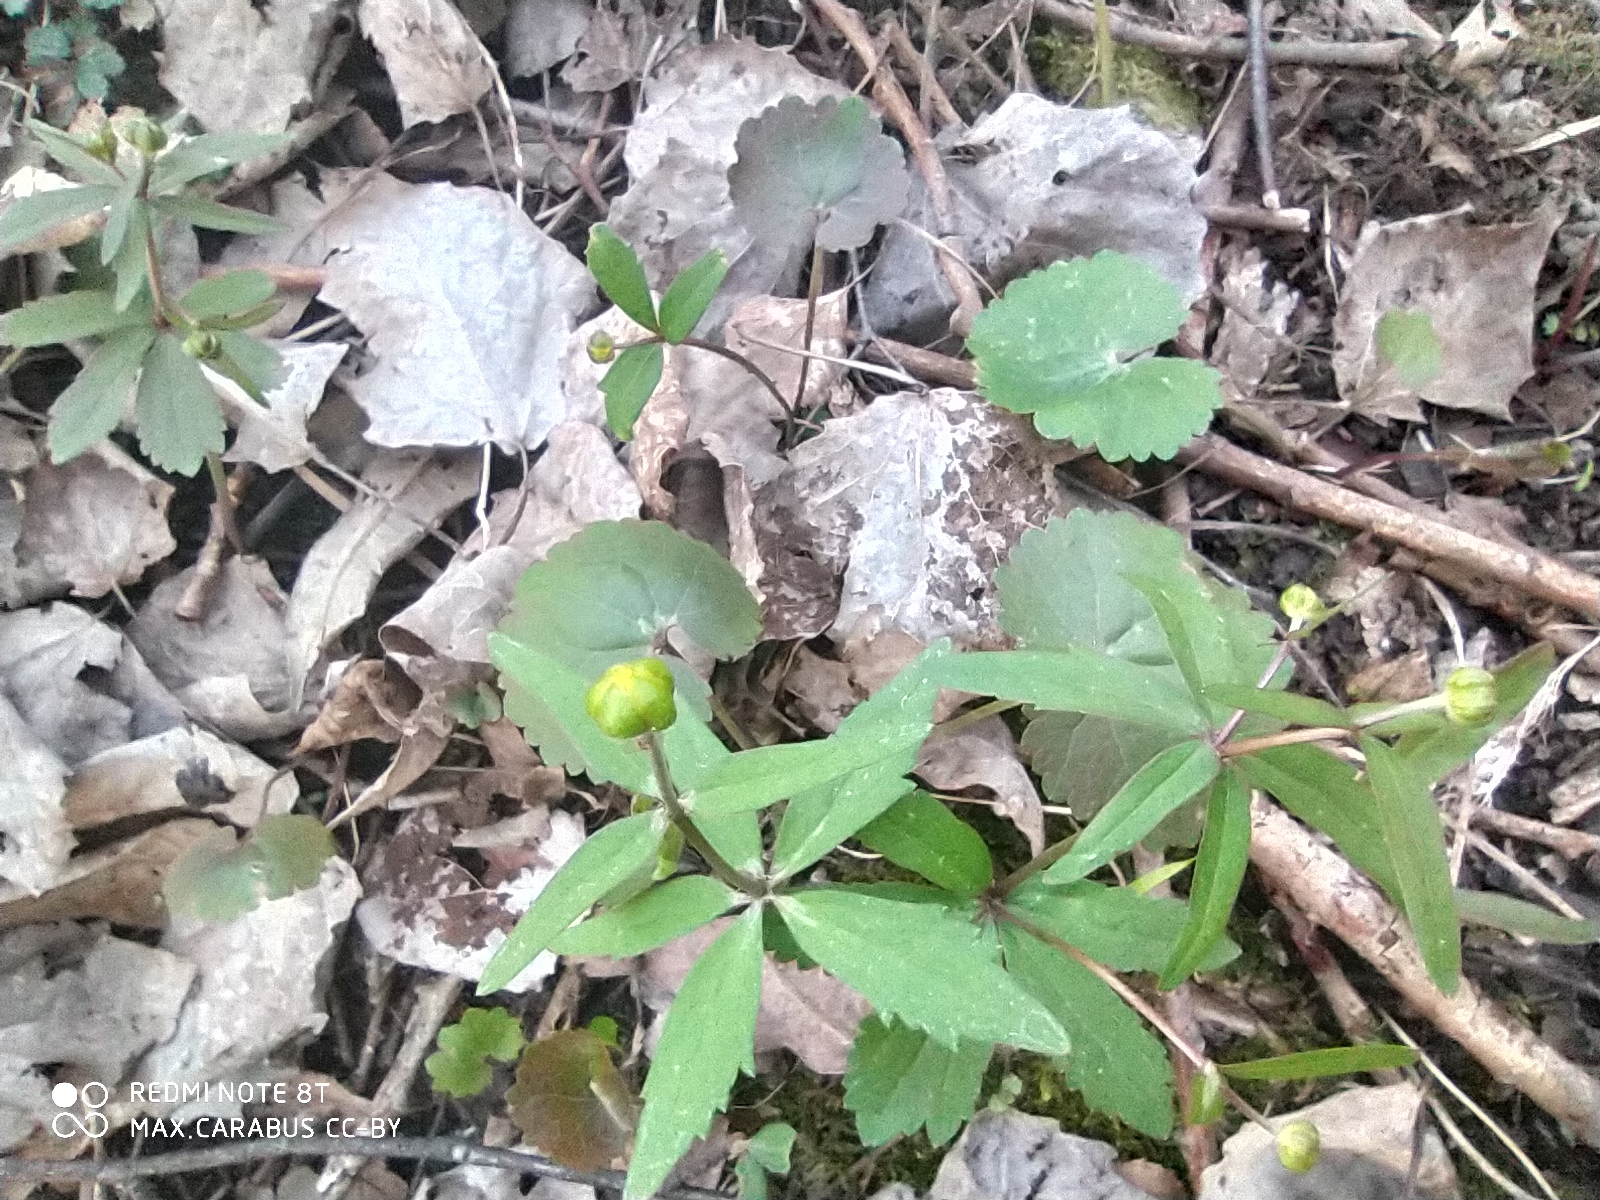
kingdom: Plantae
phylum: Tracheophyta
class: Magnoliopsida
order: Ranunculales
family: Ranunculaceae
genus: Ranunculus
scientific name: Ranunculus cassubicus
